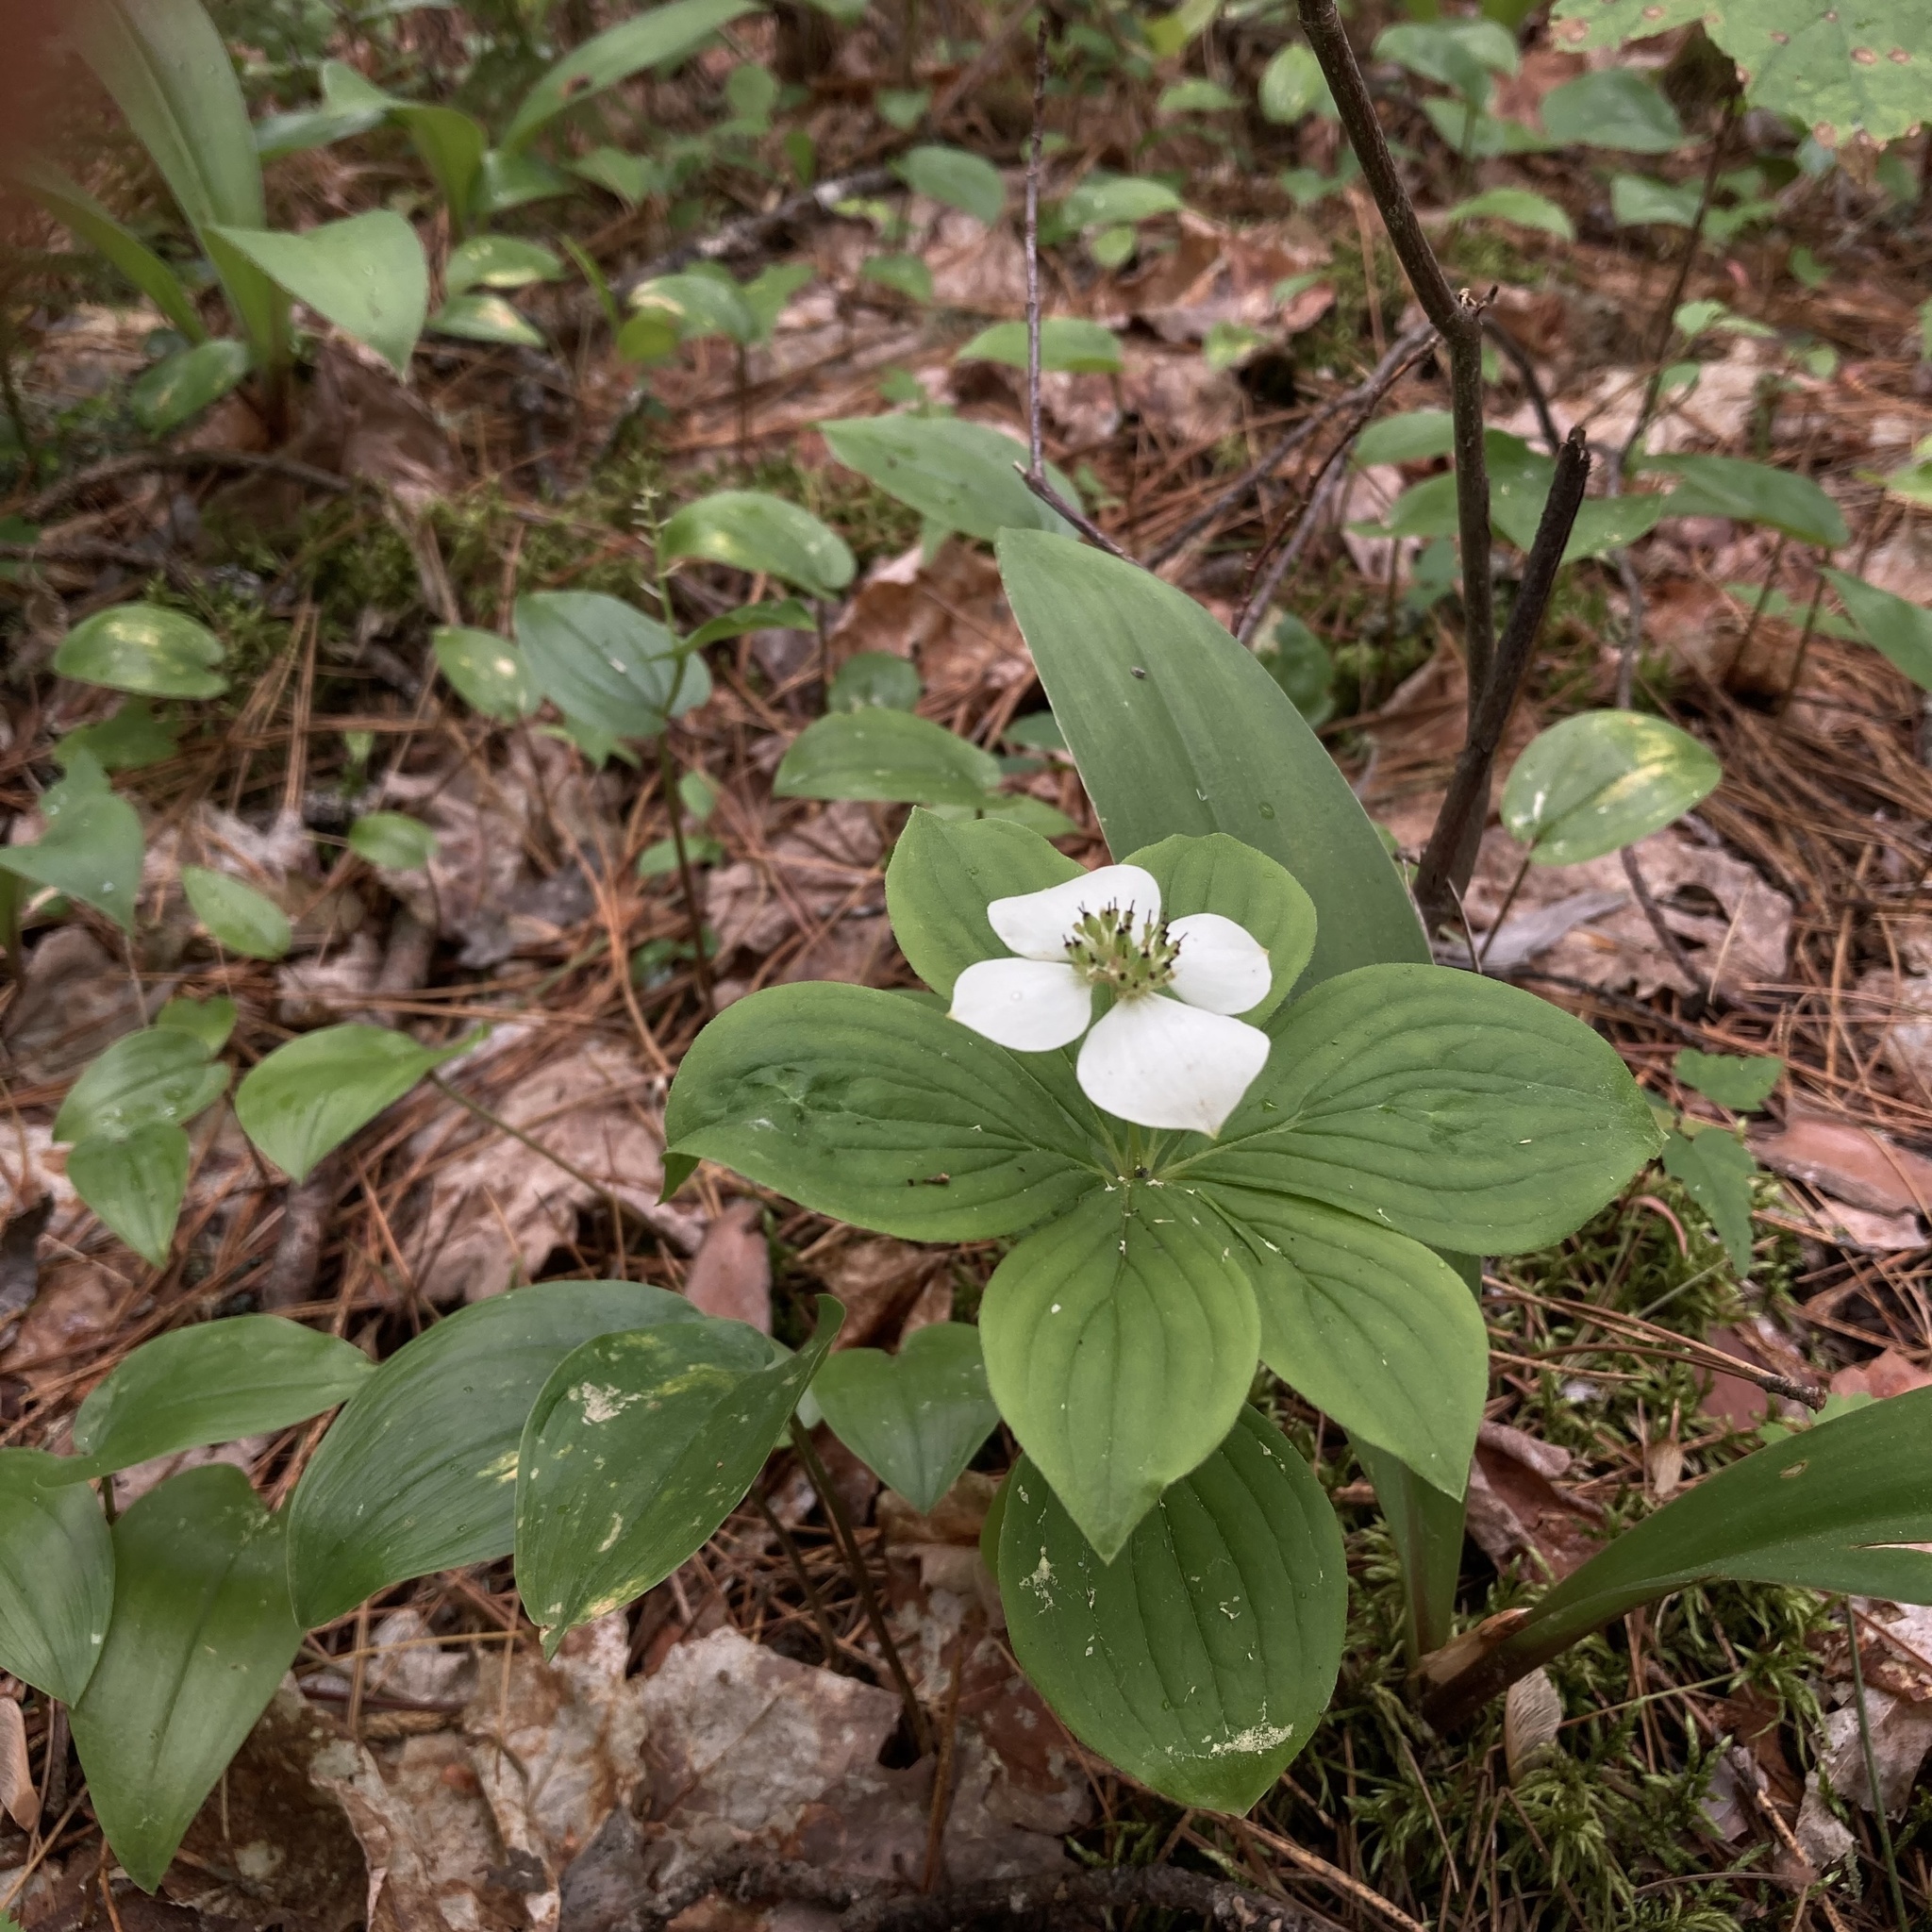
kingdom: Plantae
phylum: Tracheophyta
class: Magnoliopsida
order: Cornales
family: Cornaceae
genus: Cornus
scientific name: Cornus canadensis
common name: Creeping dogwood
